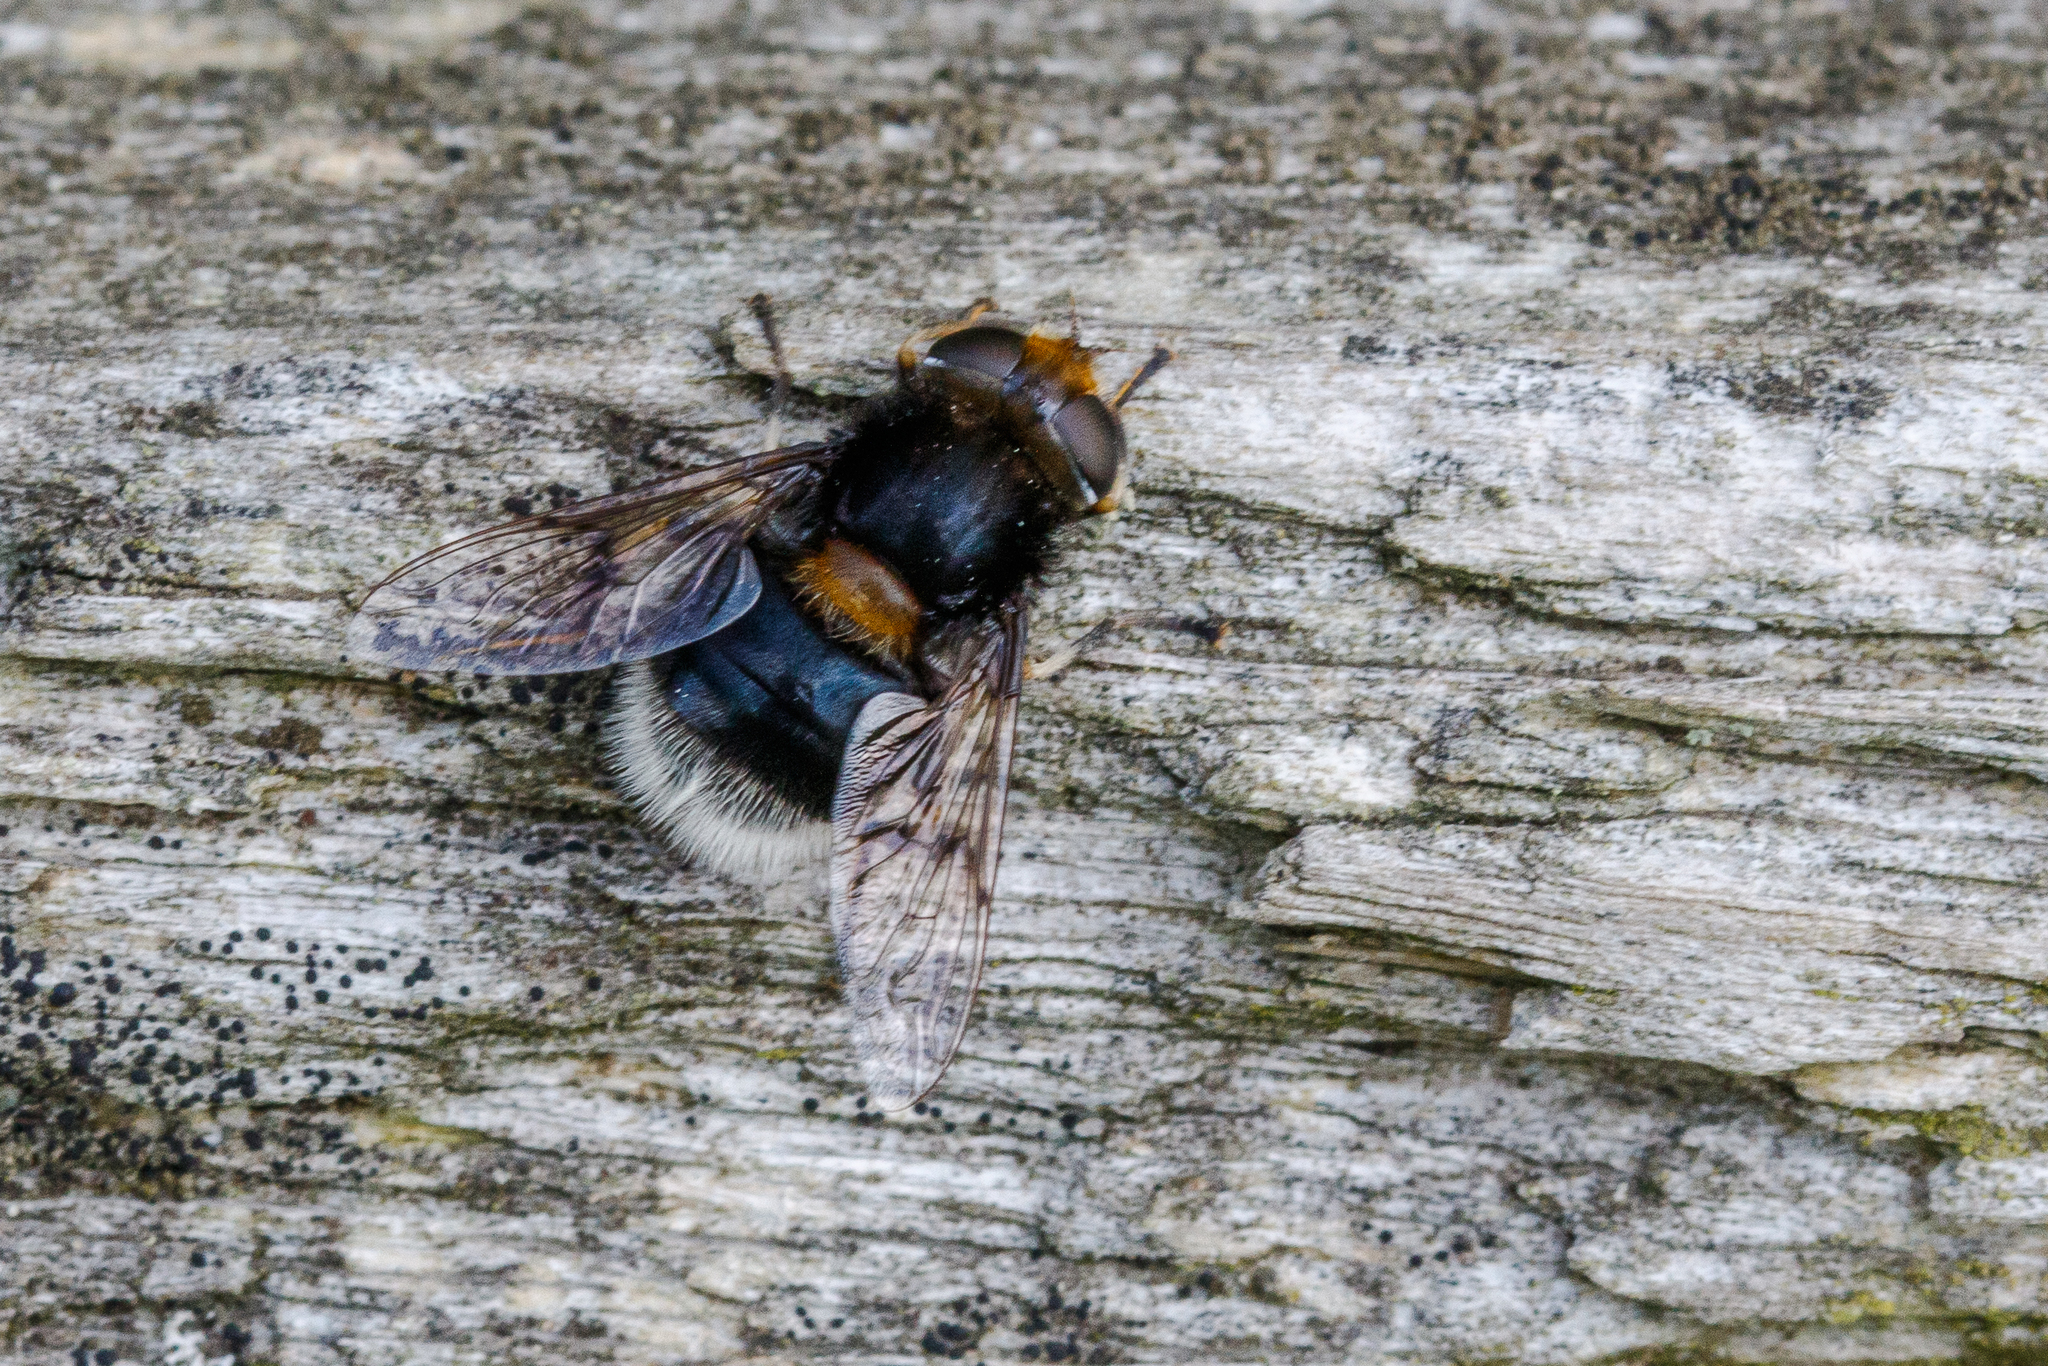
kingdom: Animalia
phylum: Arthropoda
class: Insecta
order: Diptera
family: Syrphidae
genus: Eristalis
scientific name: Eristalis intricaria
